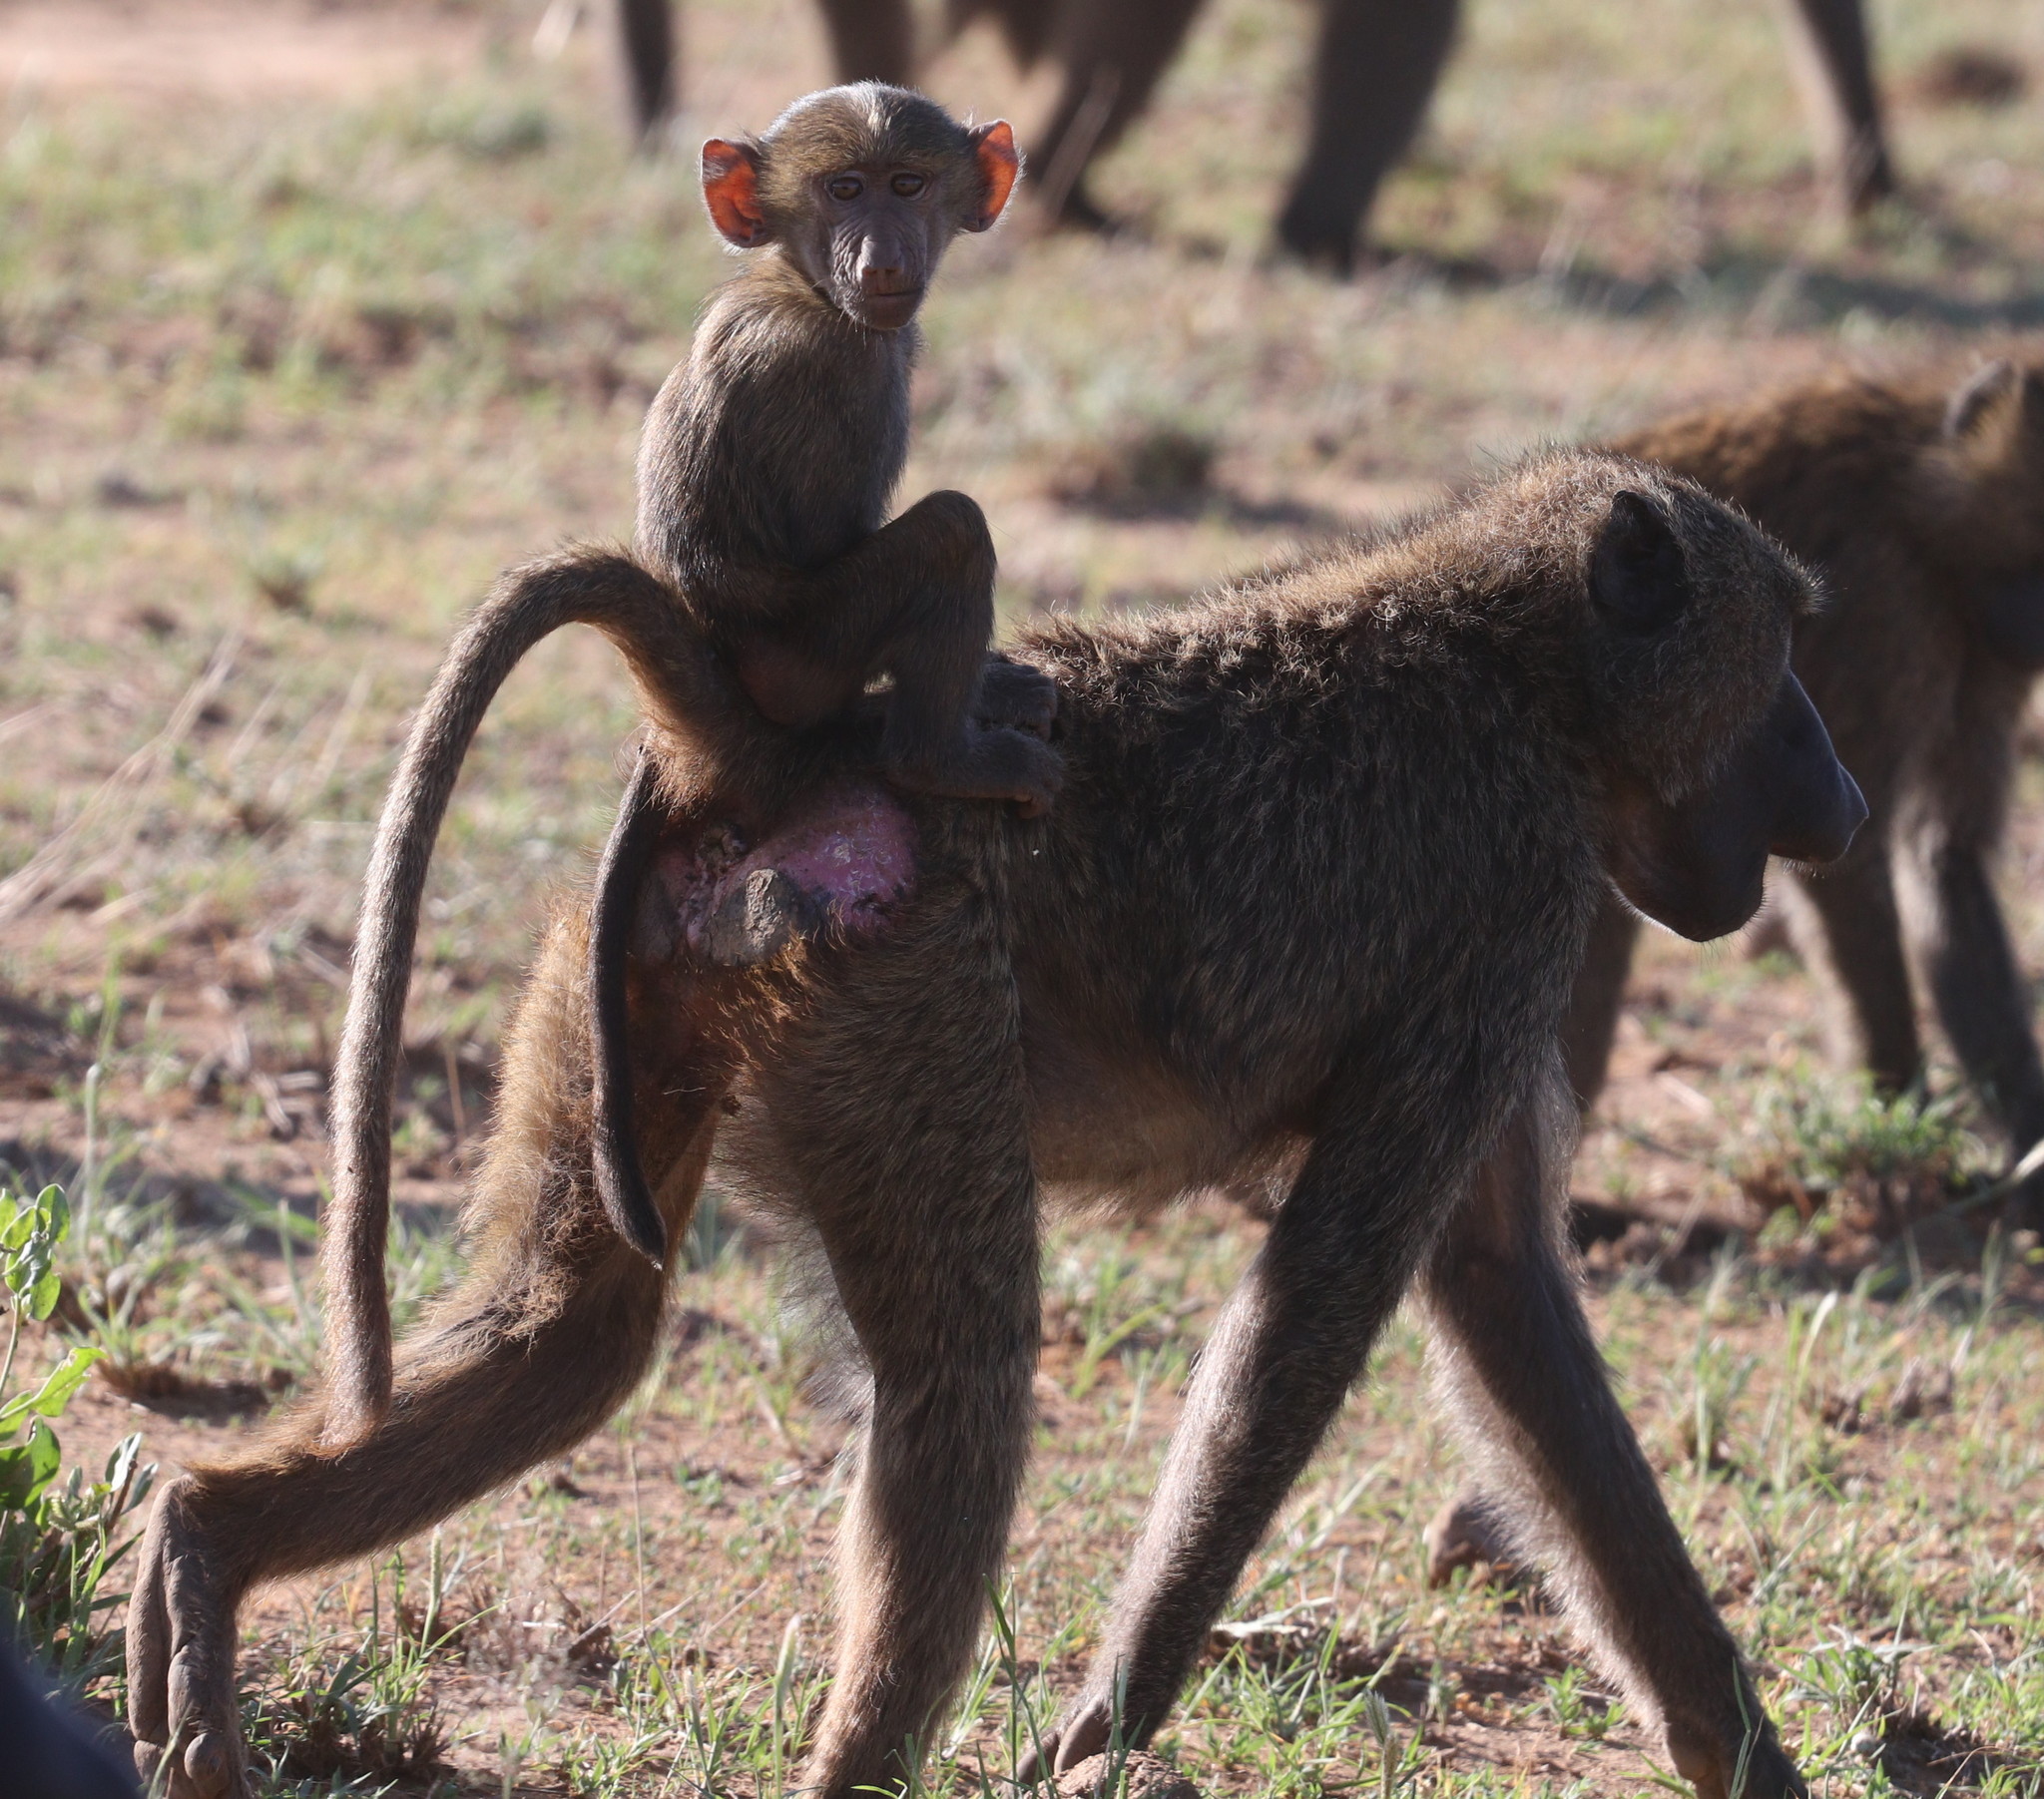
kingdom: Animalia
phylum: Chordata
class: Mammalia
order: Primates
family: Cercopithecidae
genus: Papio
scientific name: Papio anubis
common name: Olive baboon
